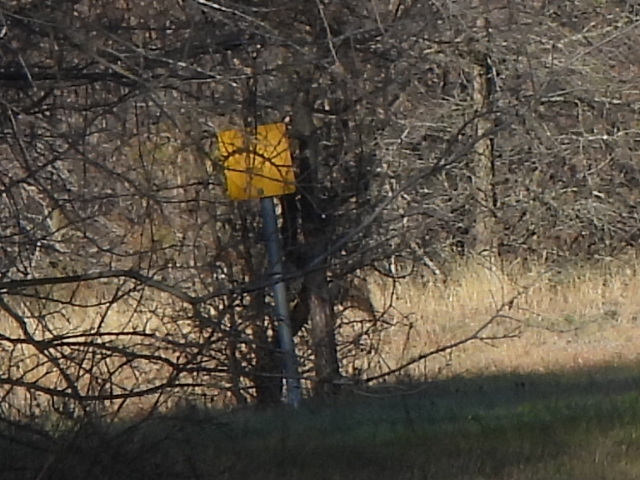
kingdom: Animalia
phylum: Chordata
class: Mammalia
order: Carnivora
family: Canidae
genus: Canis
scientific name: Canis latrans
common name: Coyote
